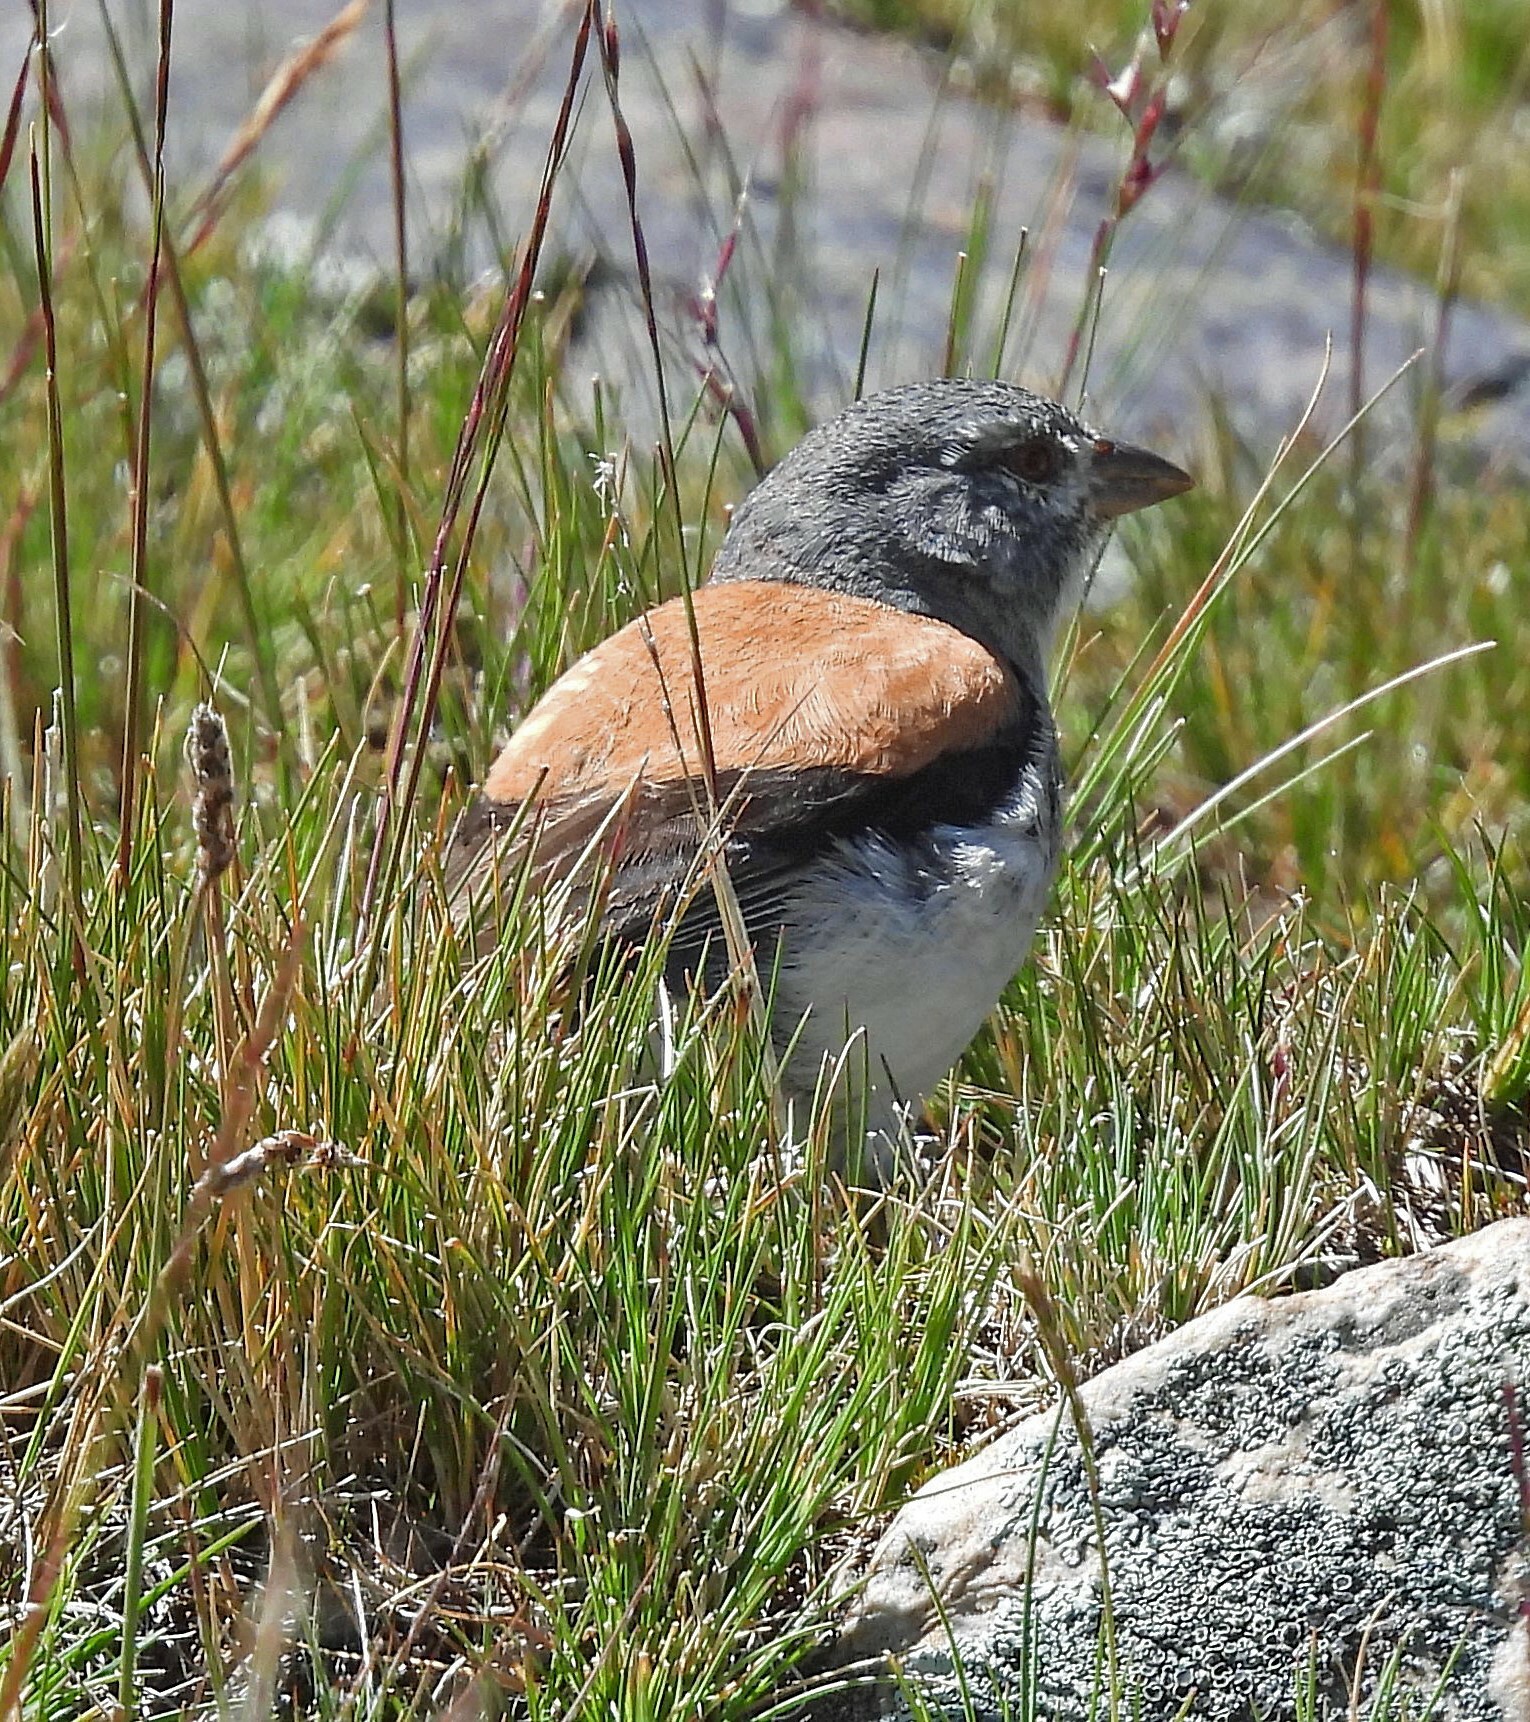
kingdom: Animalia
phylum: Chordata
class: Aves
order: Passeriformes
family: Thraupidae
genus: Idiopsar
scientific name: Idiopsar dorsalis
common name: Red-backed sierra finch
